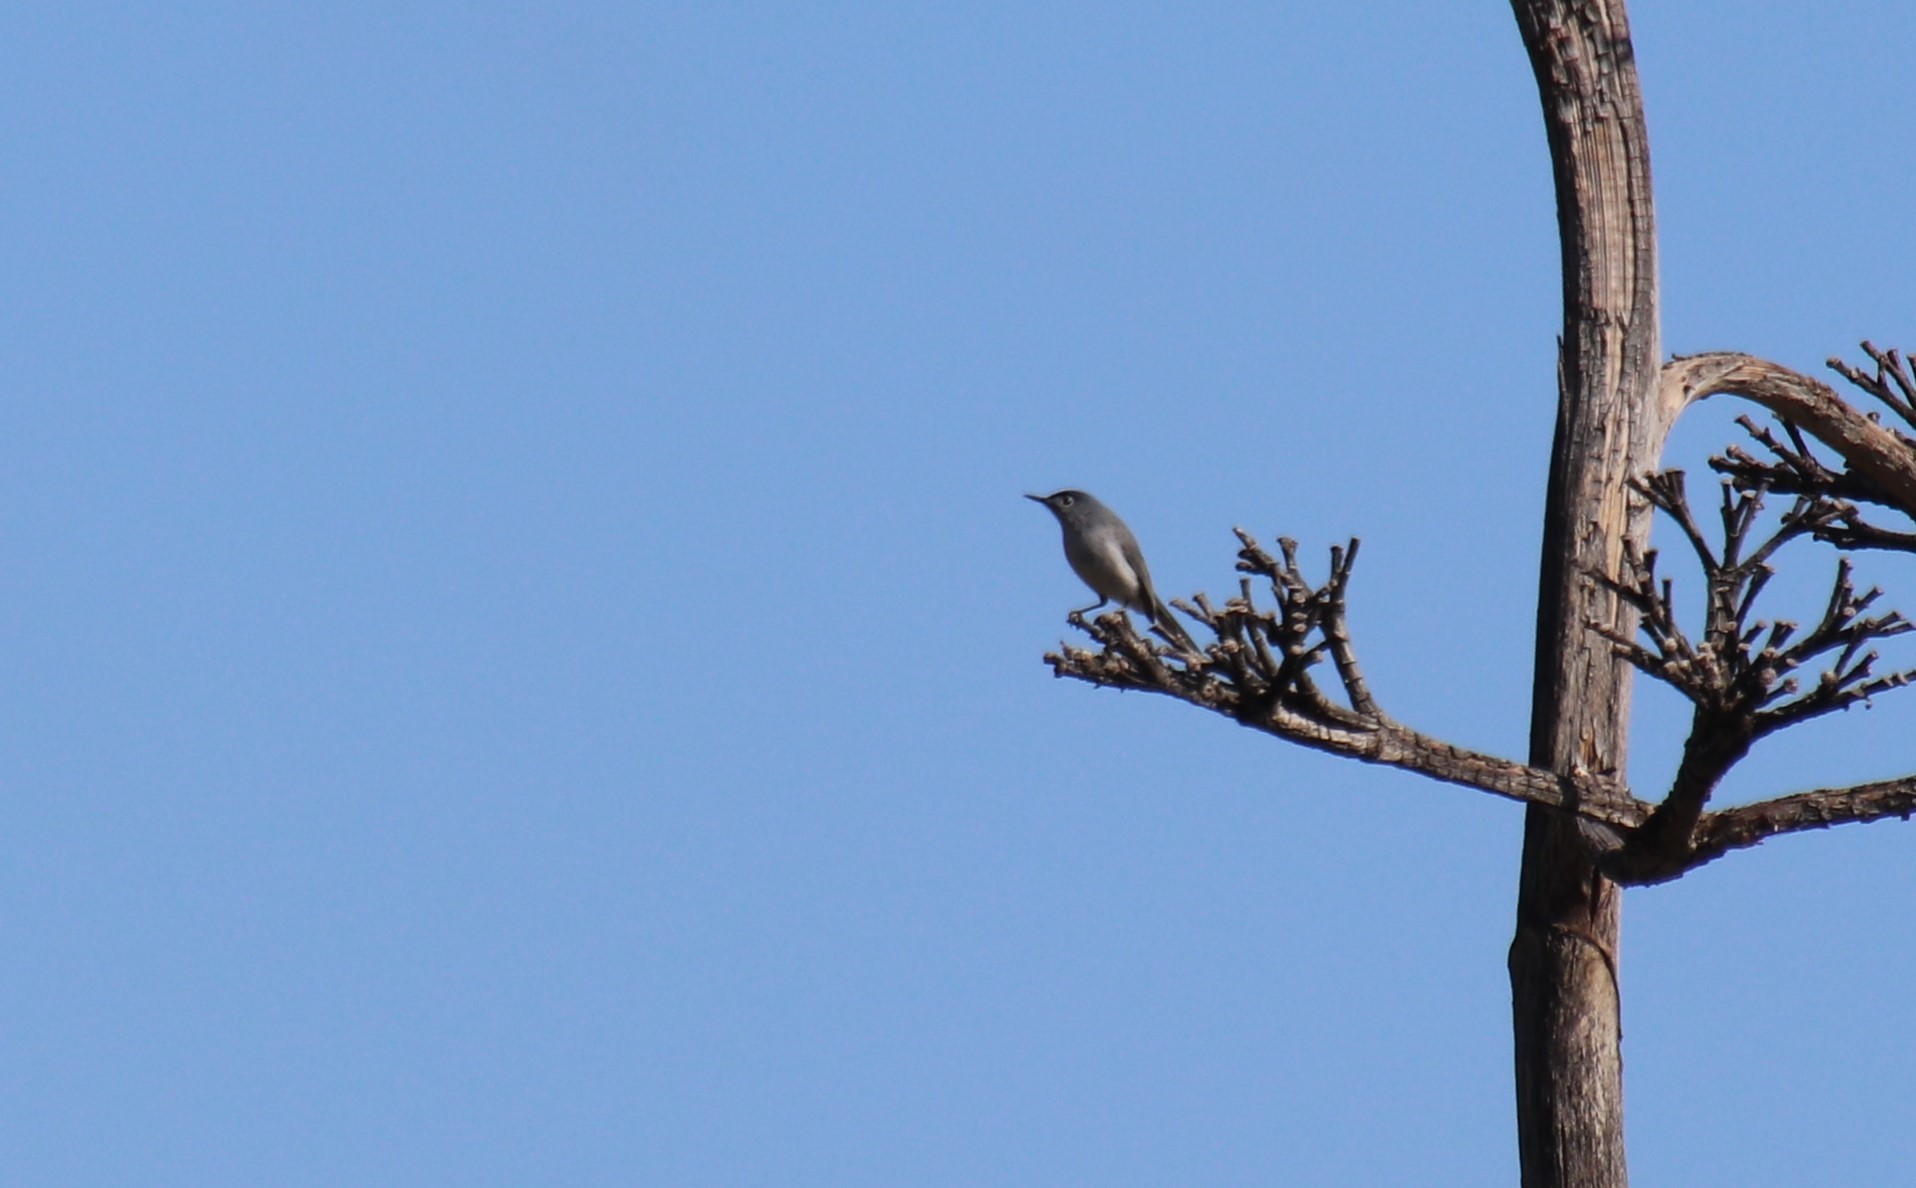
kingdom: Animalia
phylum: Chordata
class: Aves
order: Passeriformes
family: Polioptilidae
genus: Polioptila
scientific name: Polioptila caerulea
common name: Blue-gray gnatcatcher
